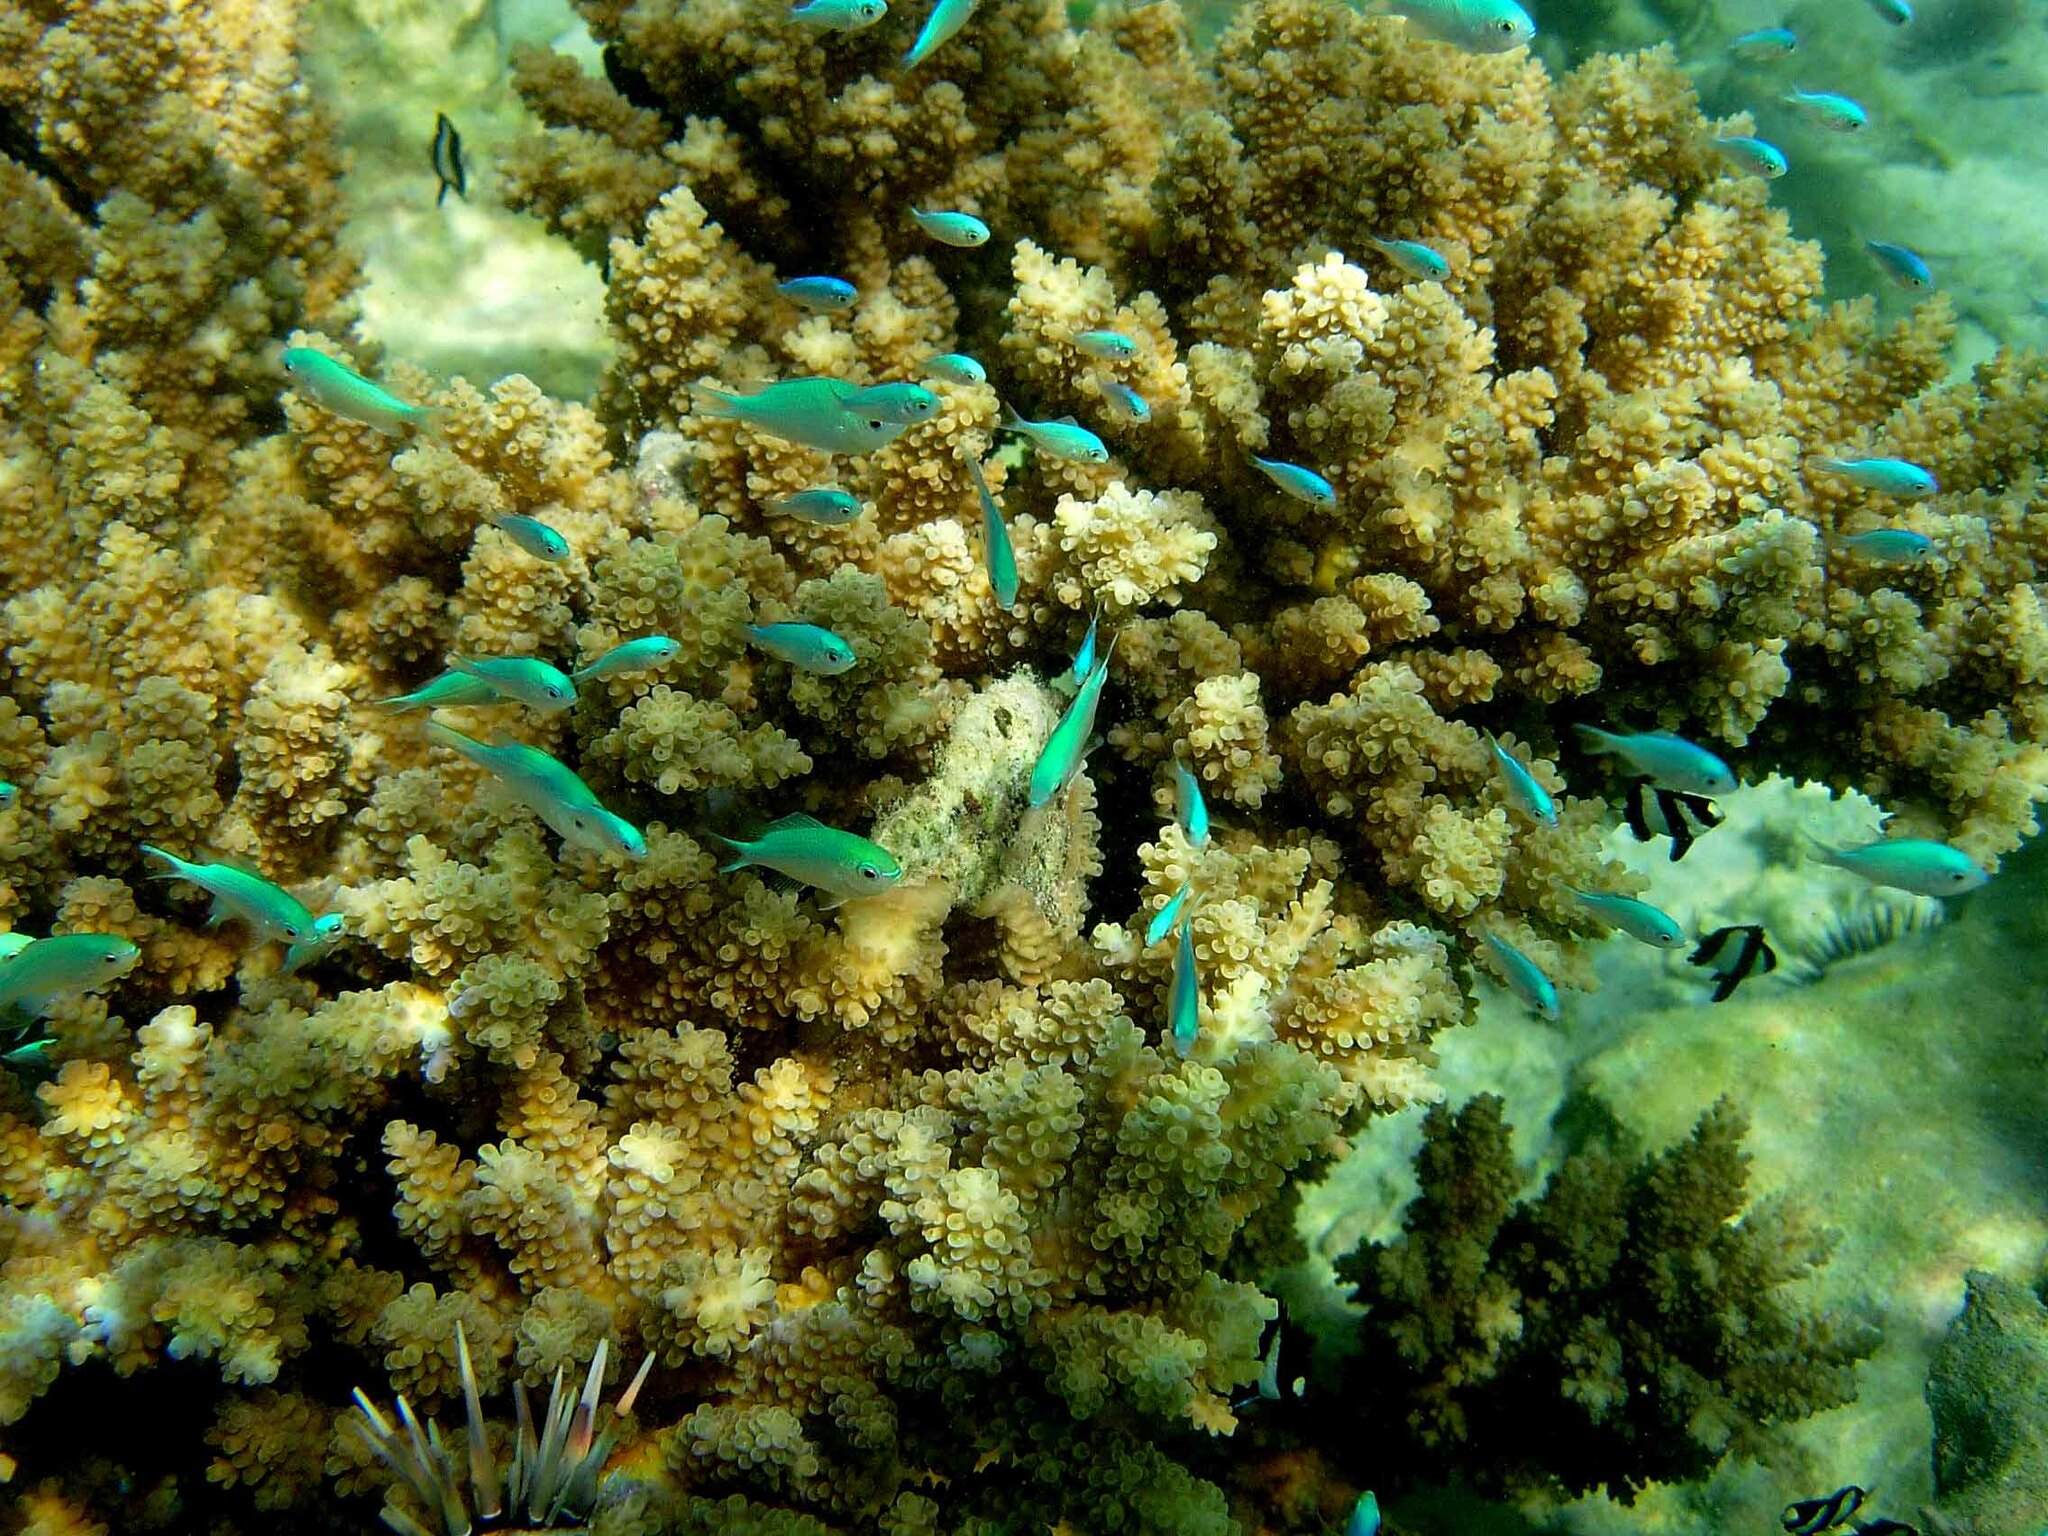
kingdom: Animalia
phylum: Chordata
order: Perciformes
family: Pomacentridae
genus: Chromis
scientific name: Chromis viridis
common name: Blue-green chromis
